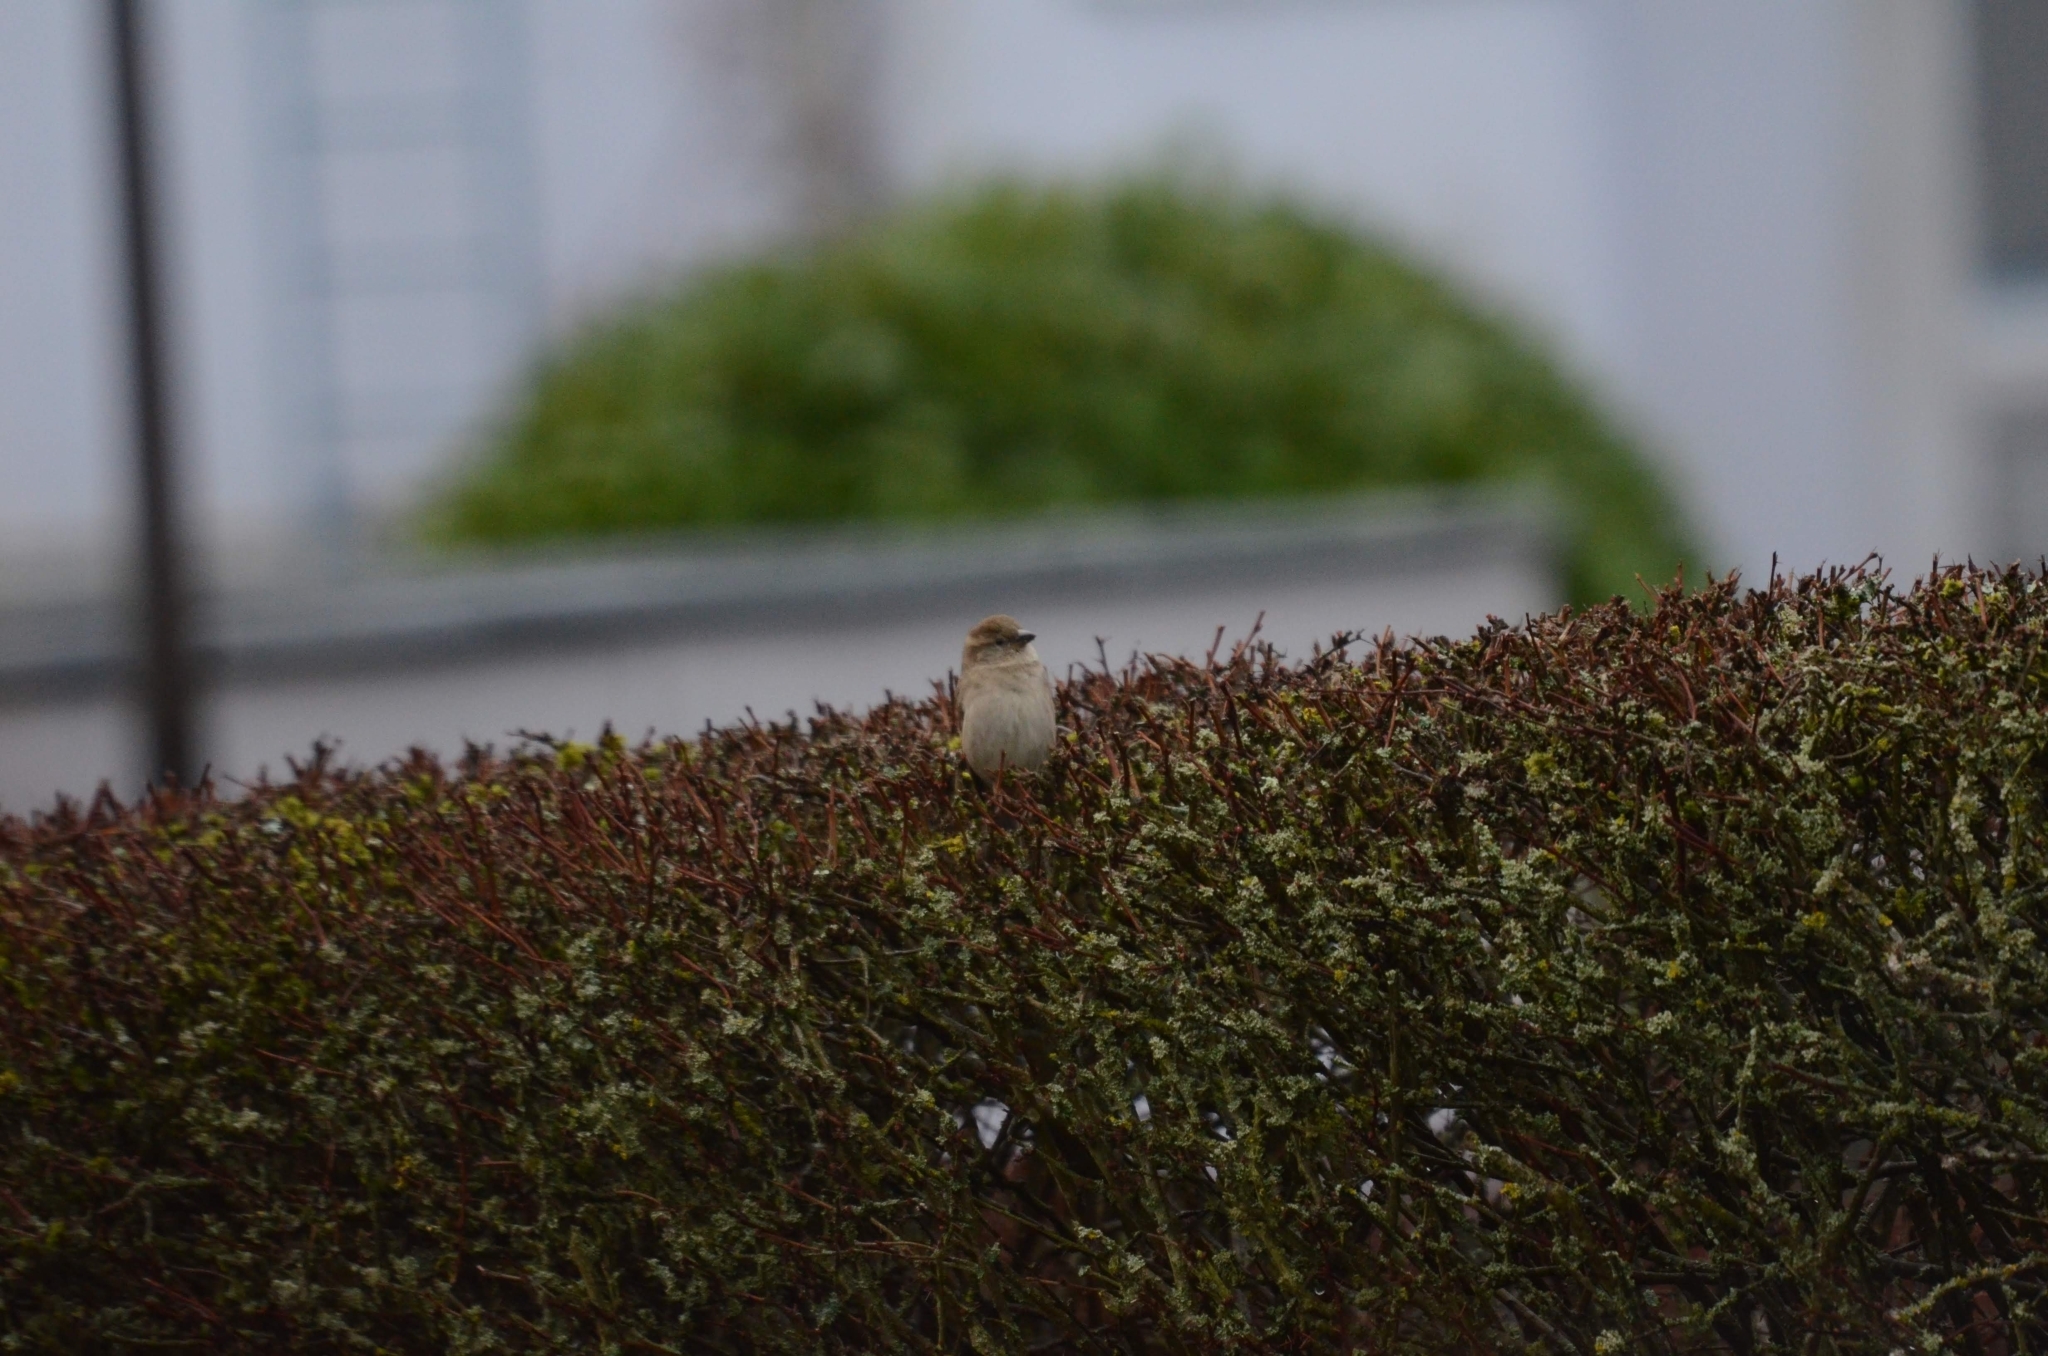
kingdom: Animalia
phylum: Chordata
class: Aves
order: Passeriformes
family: Passeridae
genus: Passer
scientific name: Passer domesticus
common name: House sparrow
